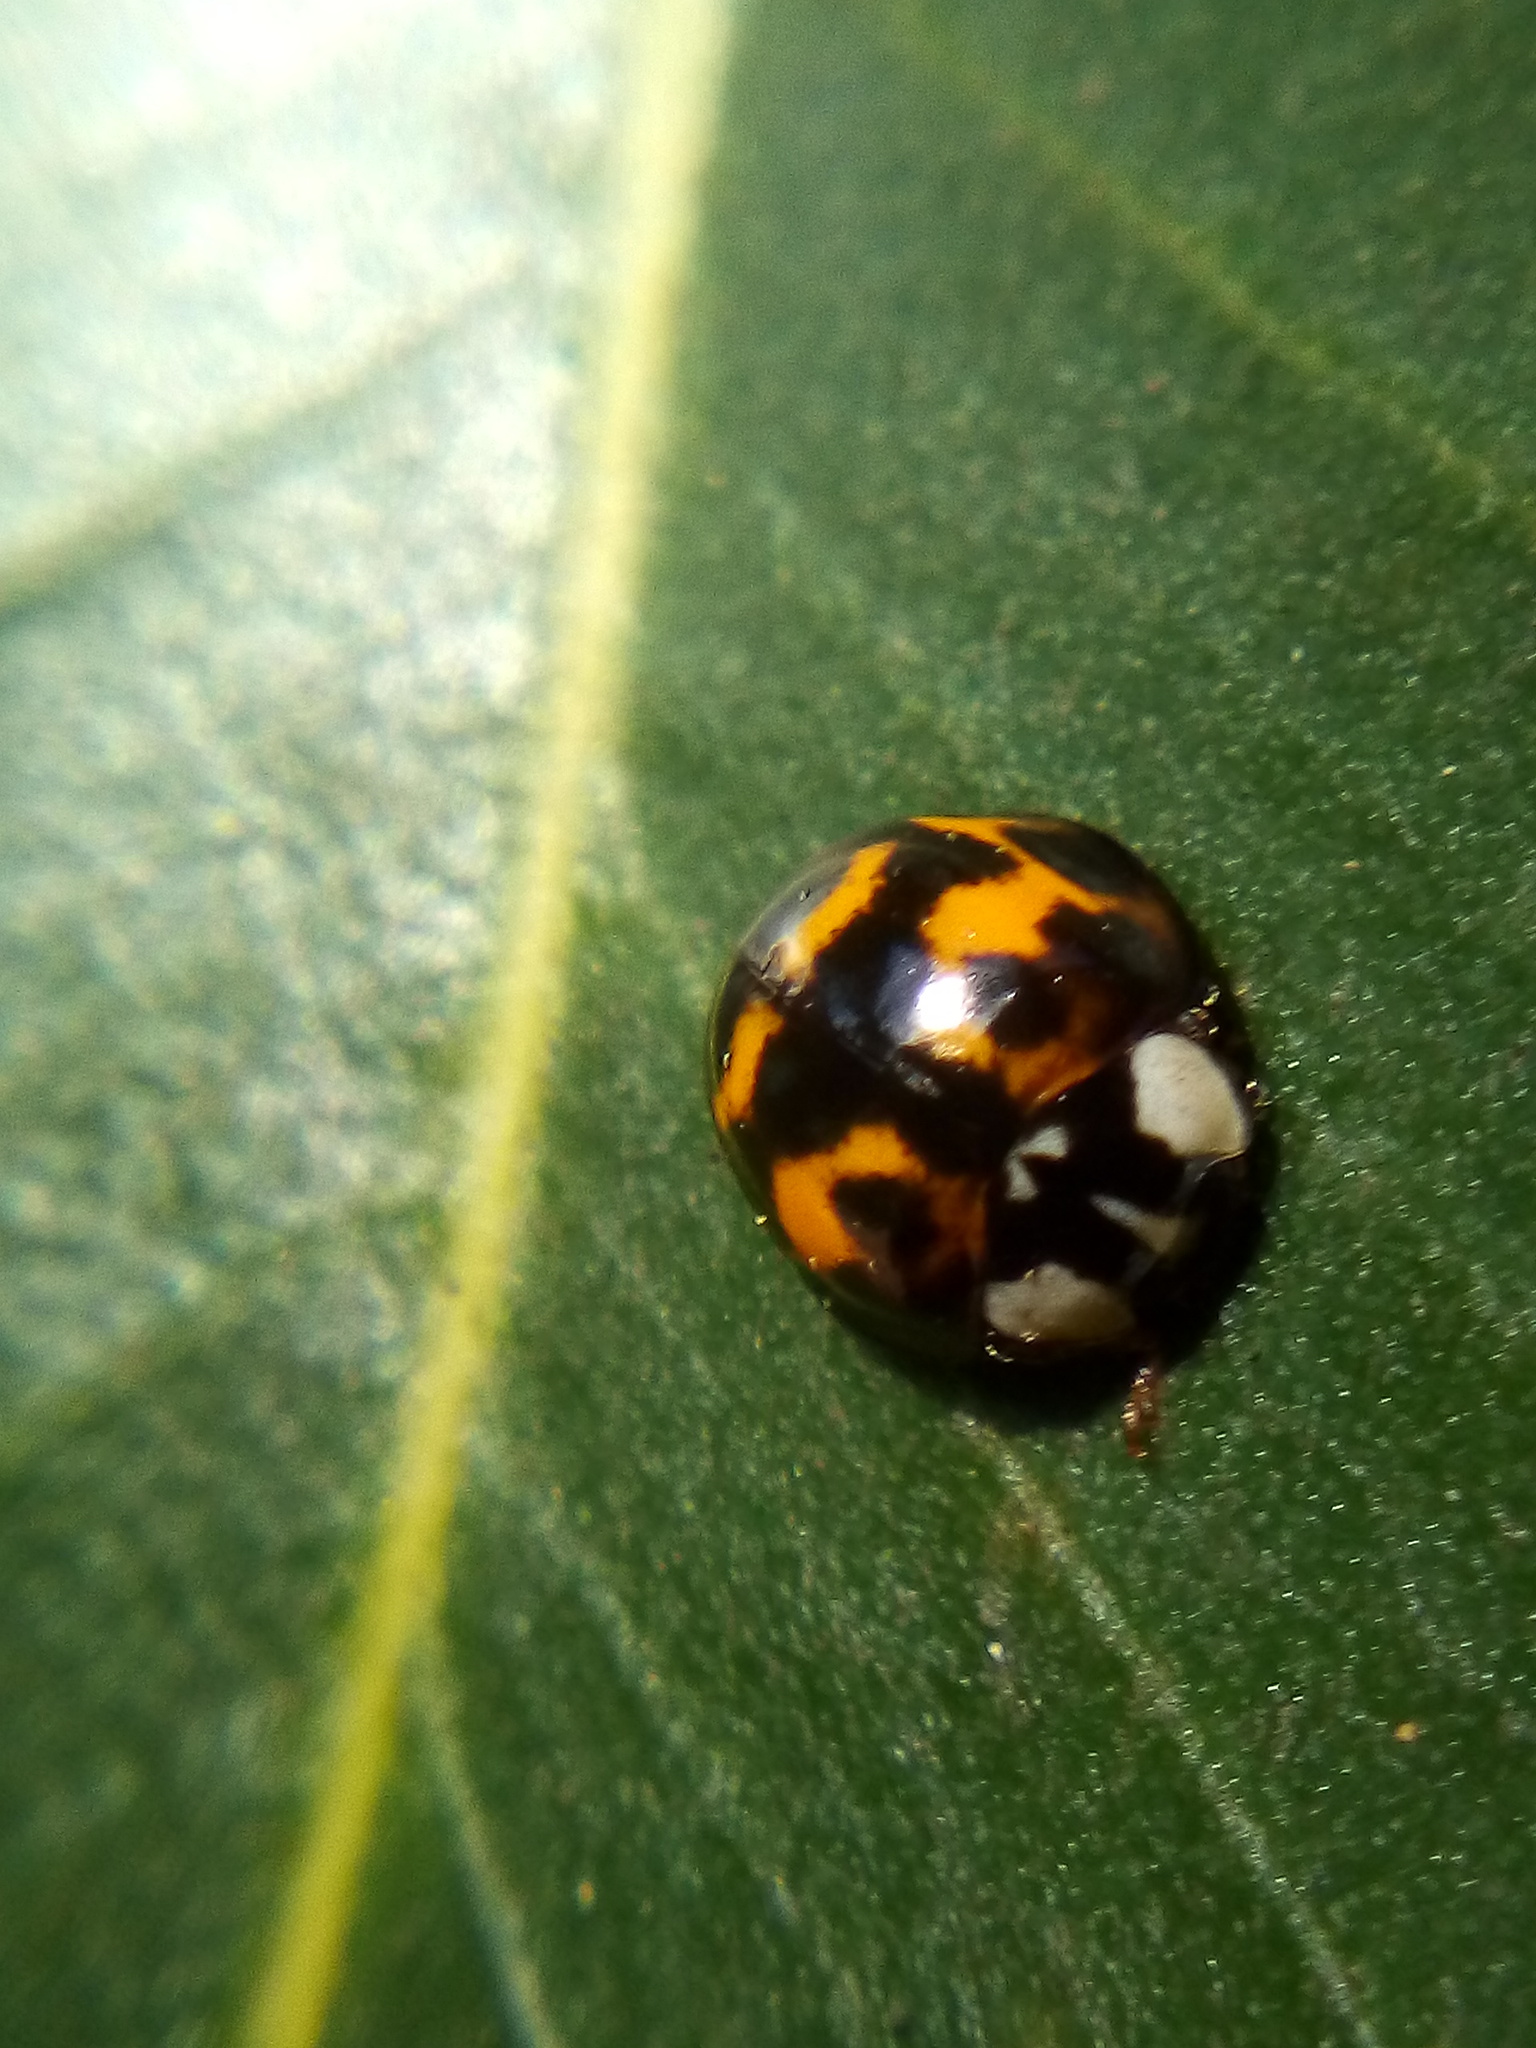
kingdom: Animalia
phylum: Arthropoda
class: Insecta
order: Coleoptera
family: Coccinellidae
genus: Harmonia
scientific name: Harmonia axyridis
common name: Harlequin ladybird
